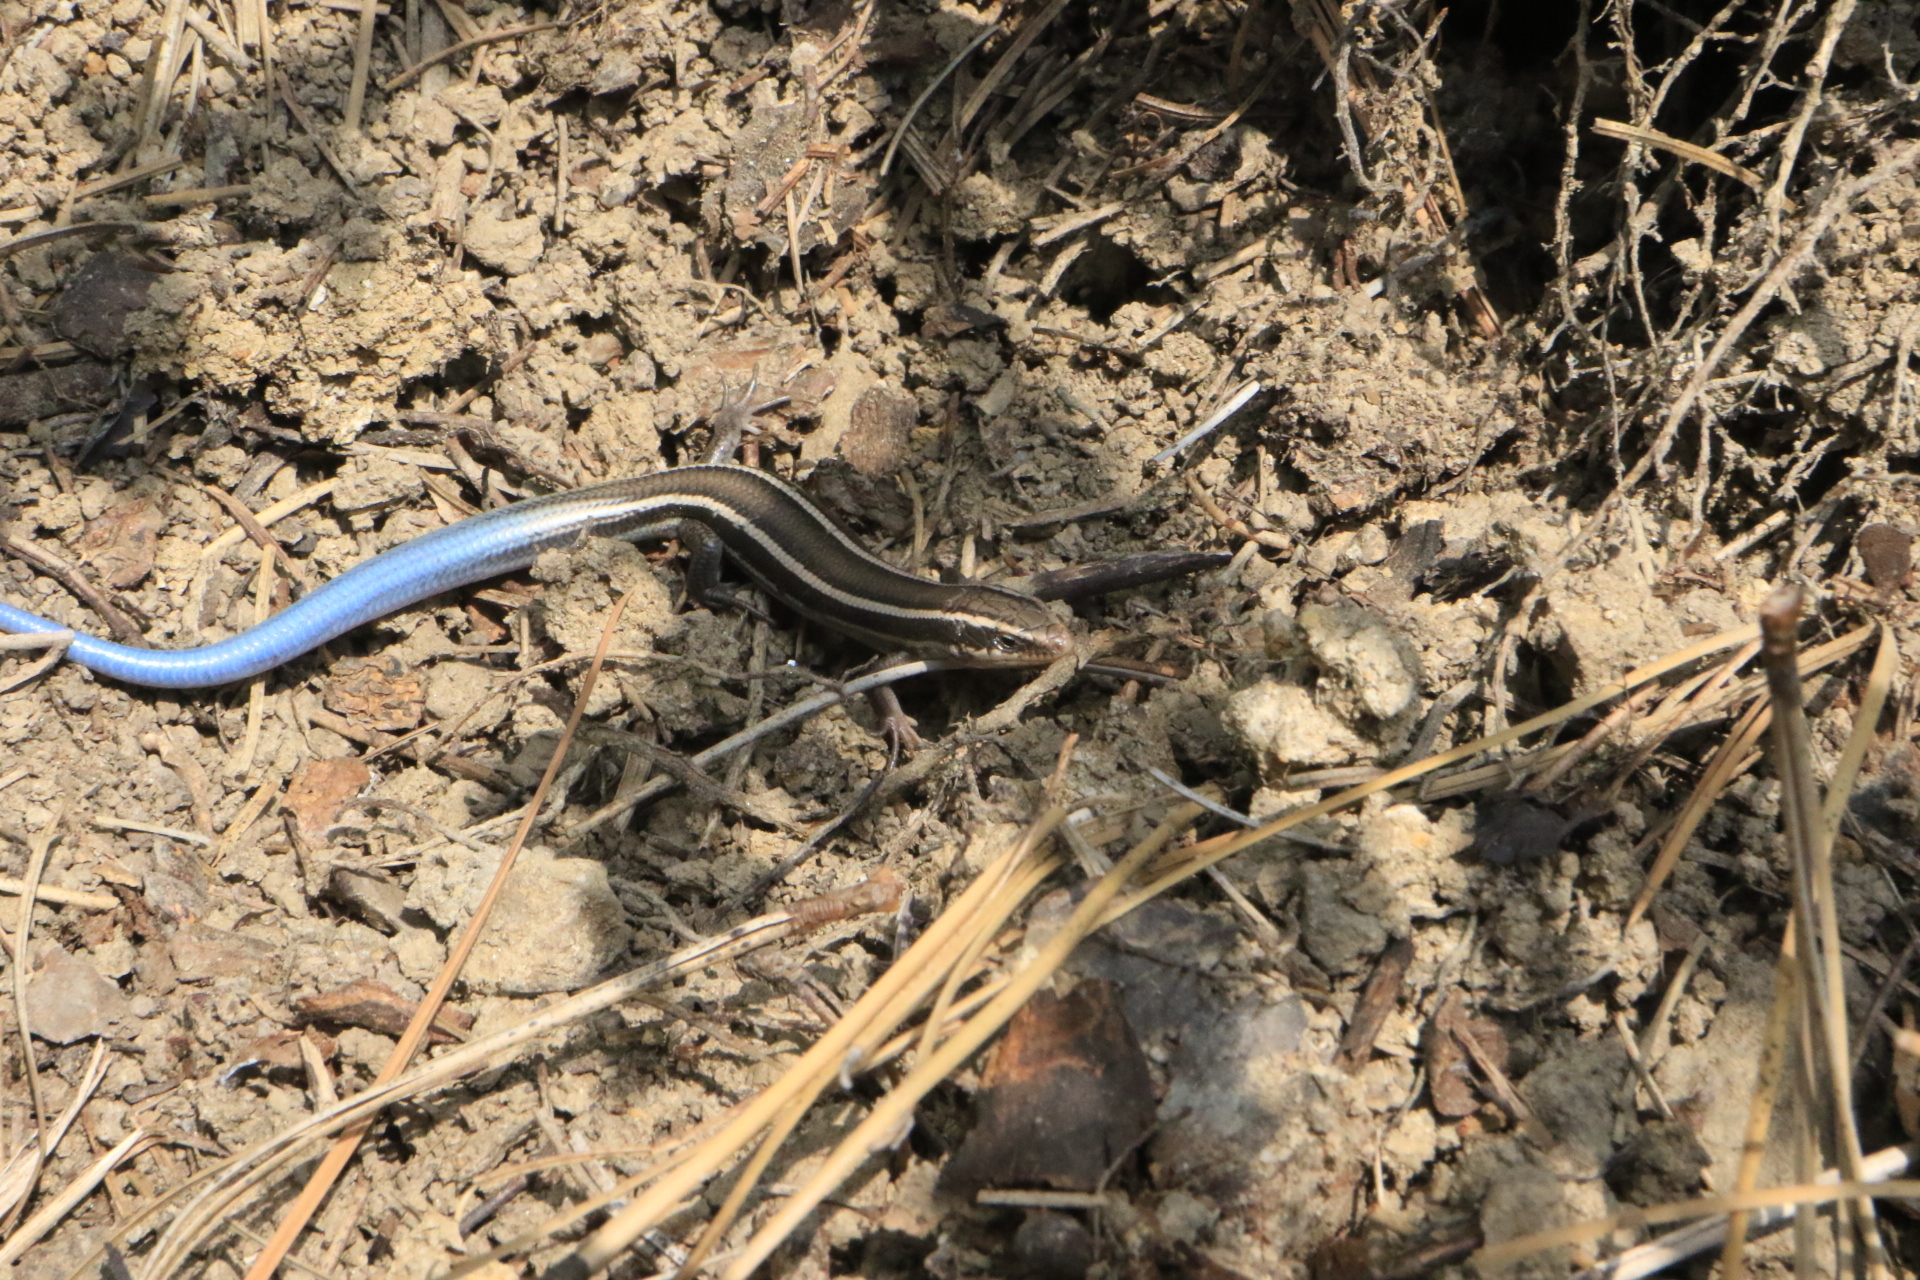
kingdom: Animalia
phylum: Chordata
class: Squamata
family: Scincidae
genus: Plestiodon
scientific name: Plestiodon skiltonianus
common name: Coronado island skink [interparietalis]
